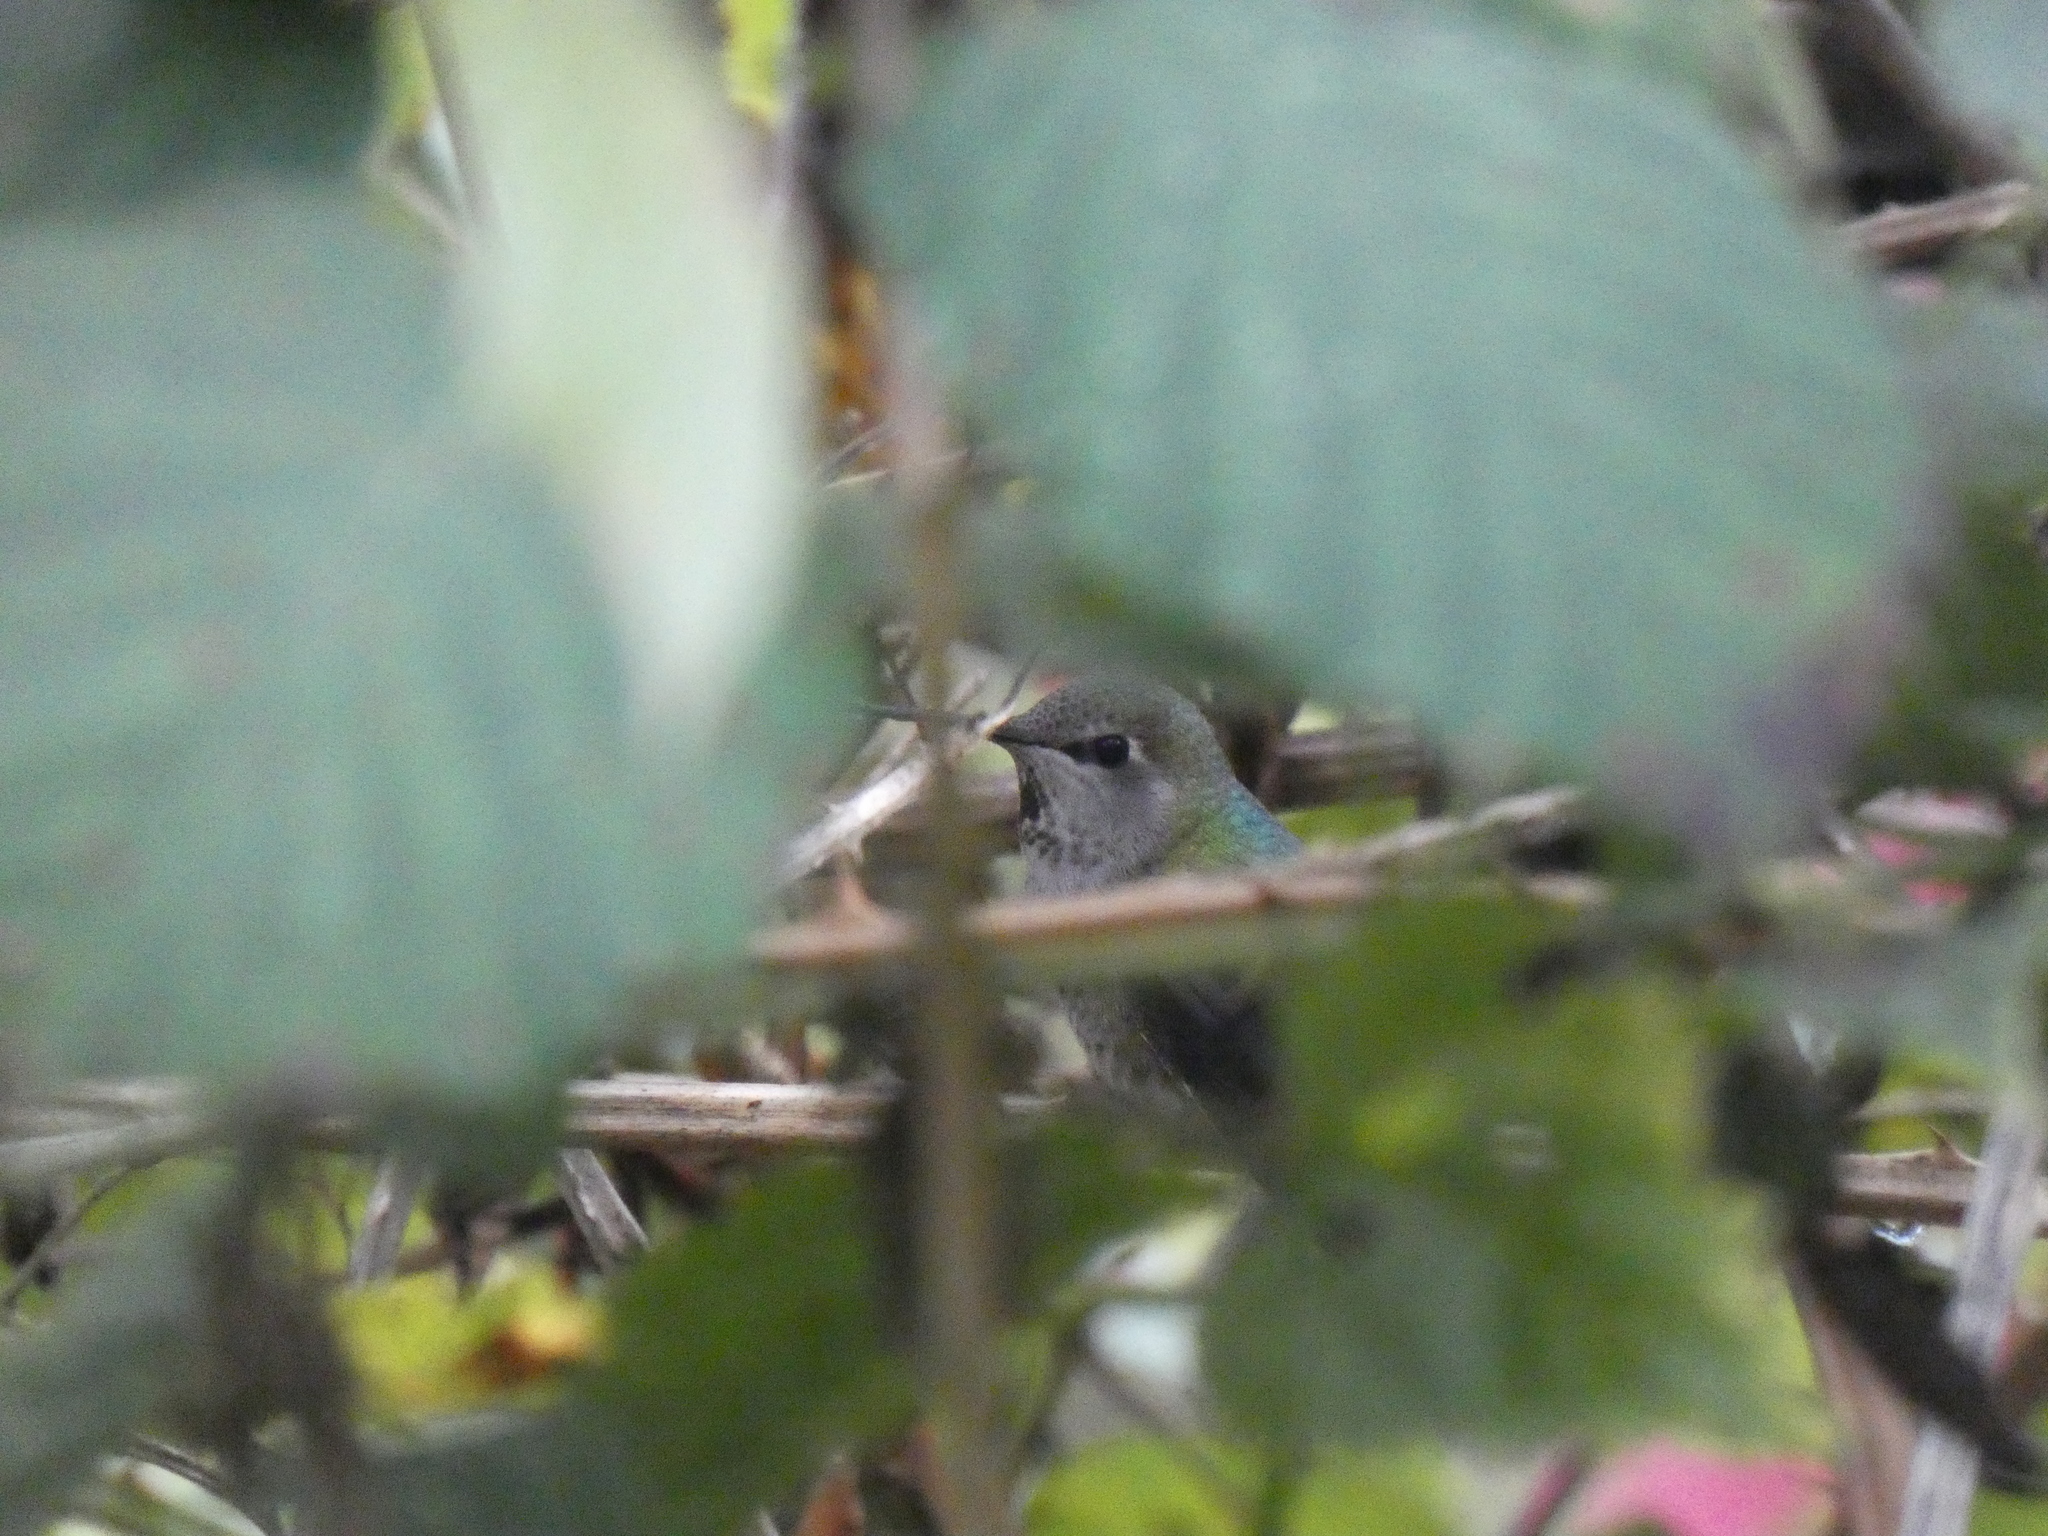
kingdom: Animalia
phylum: Chordata
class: Aves
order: Apodiformes
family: Trochilidae
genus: Calypte
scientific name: Calypte anna
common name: Anna's hummingbird
